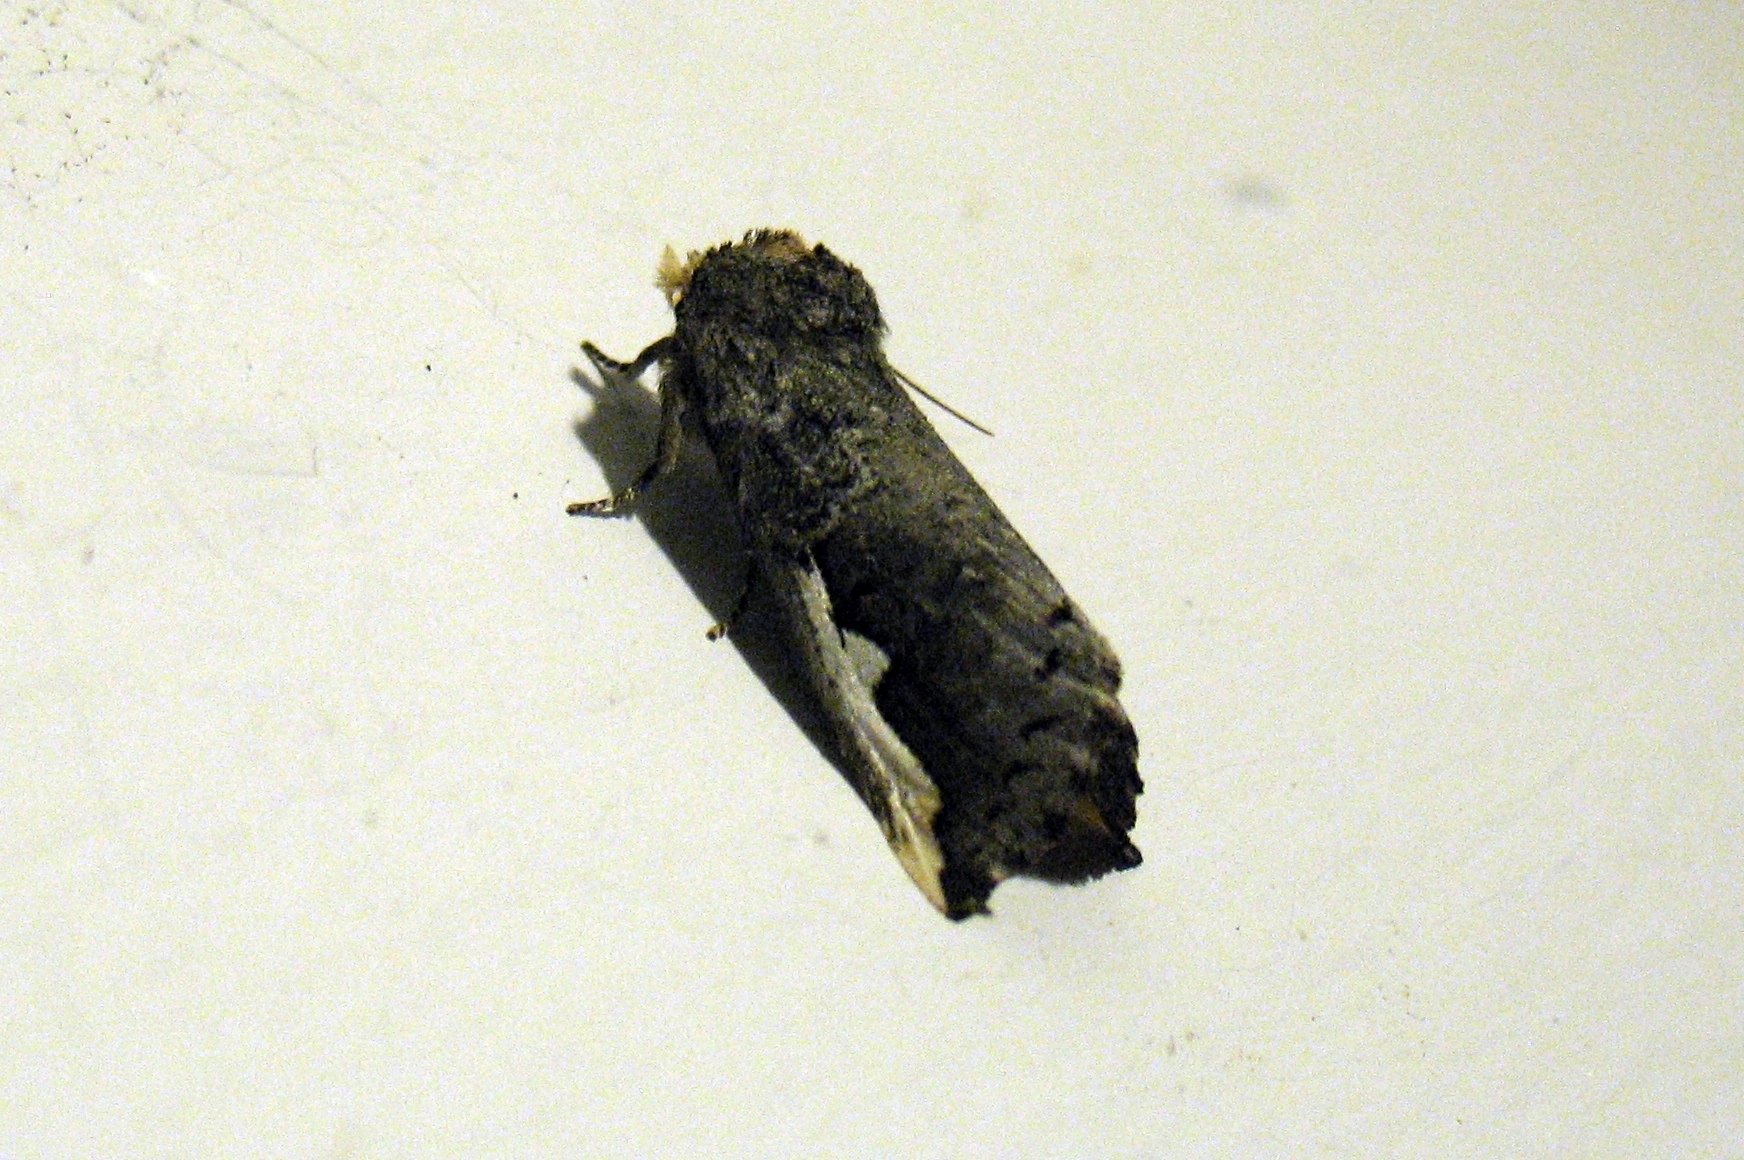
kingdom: Animalia
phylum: Arthropoda
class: Insecta
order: Lepidoptera
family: Notodontidae
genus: Symmerista
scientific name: Symmerista
